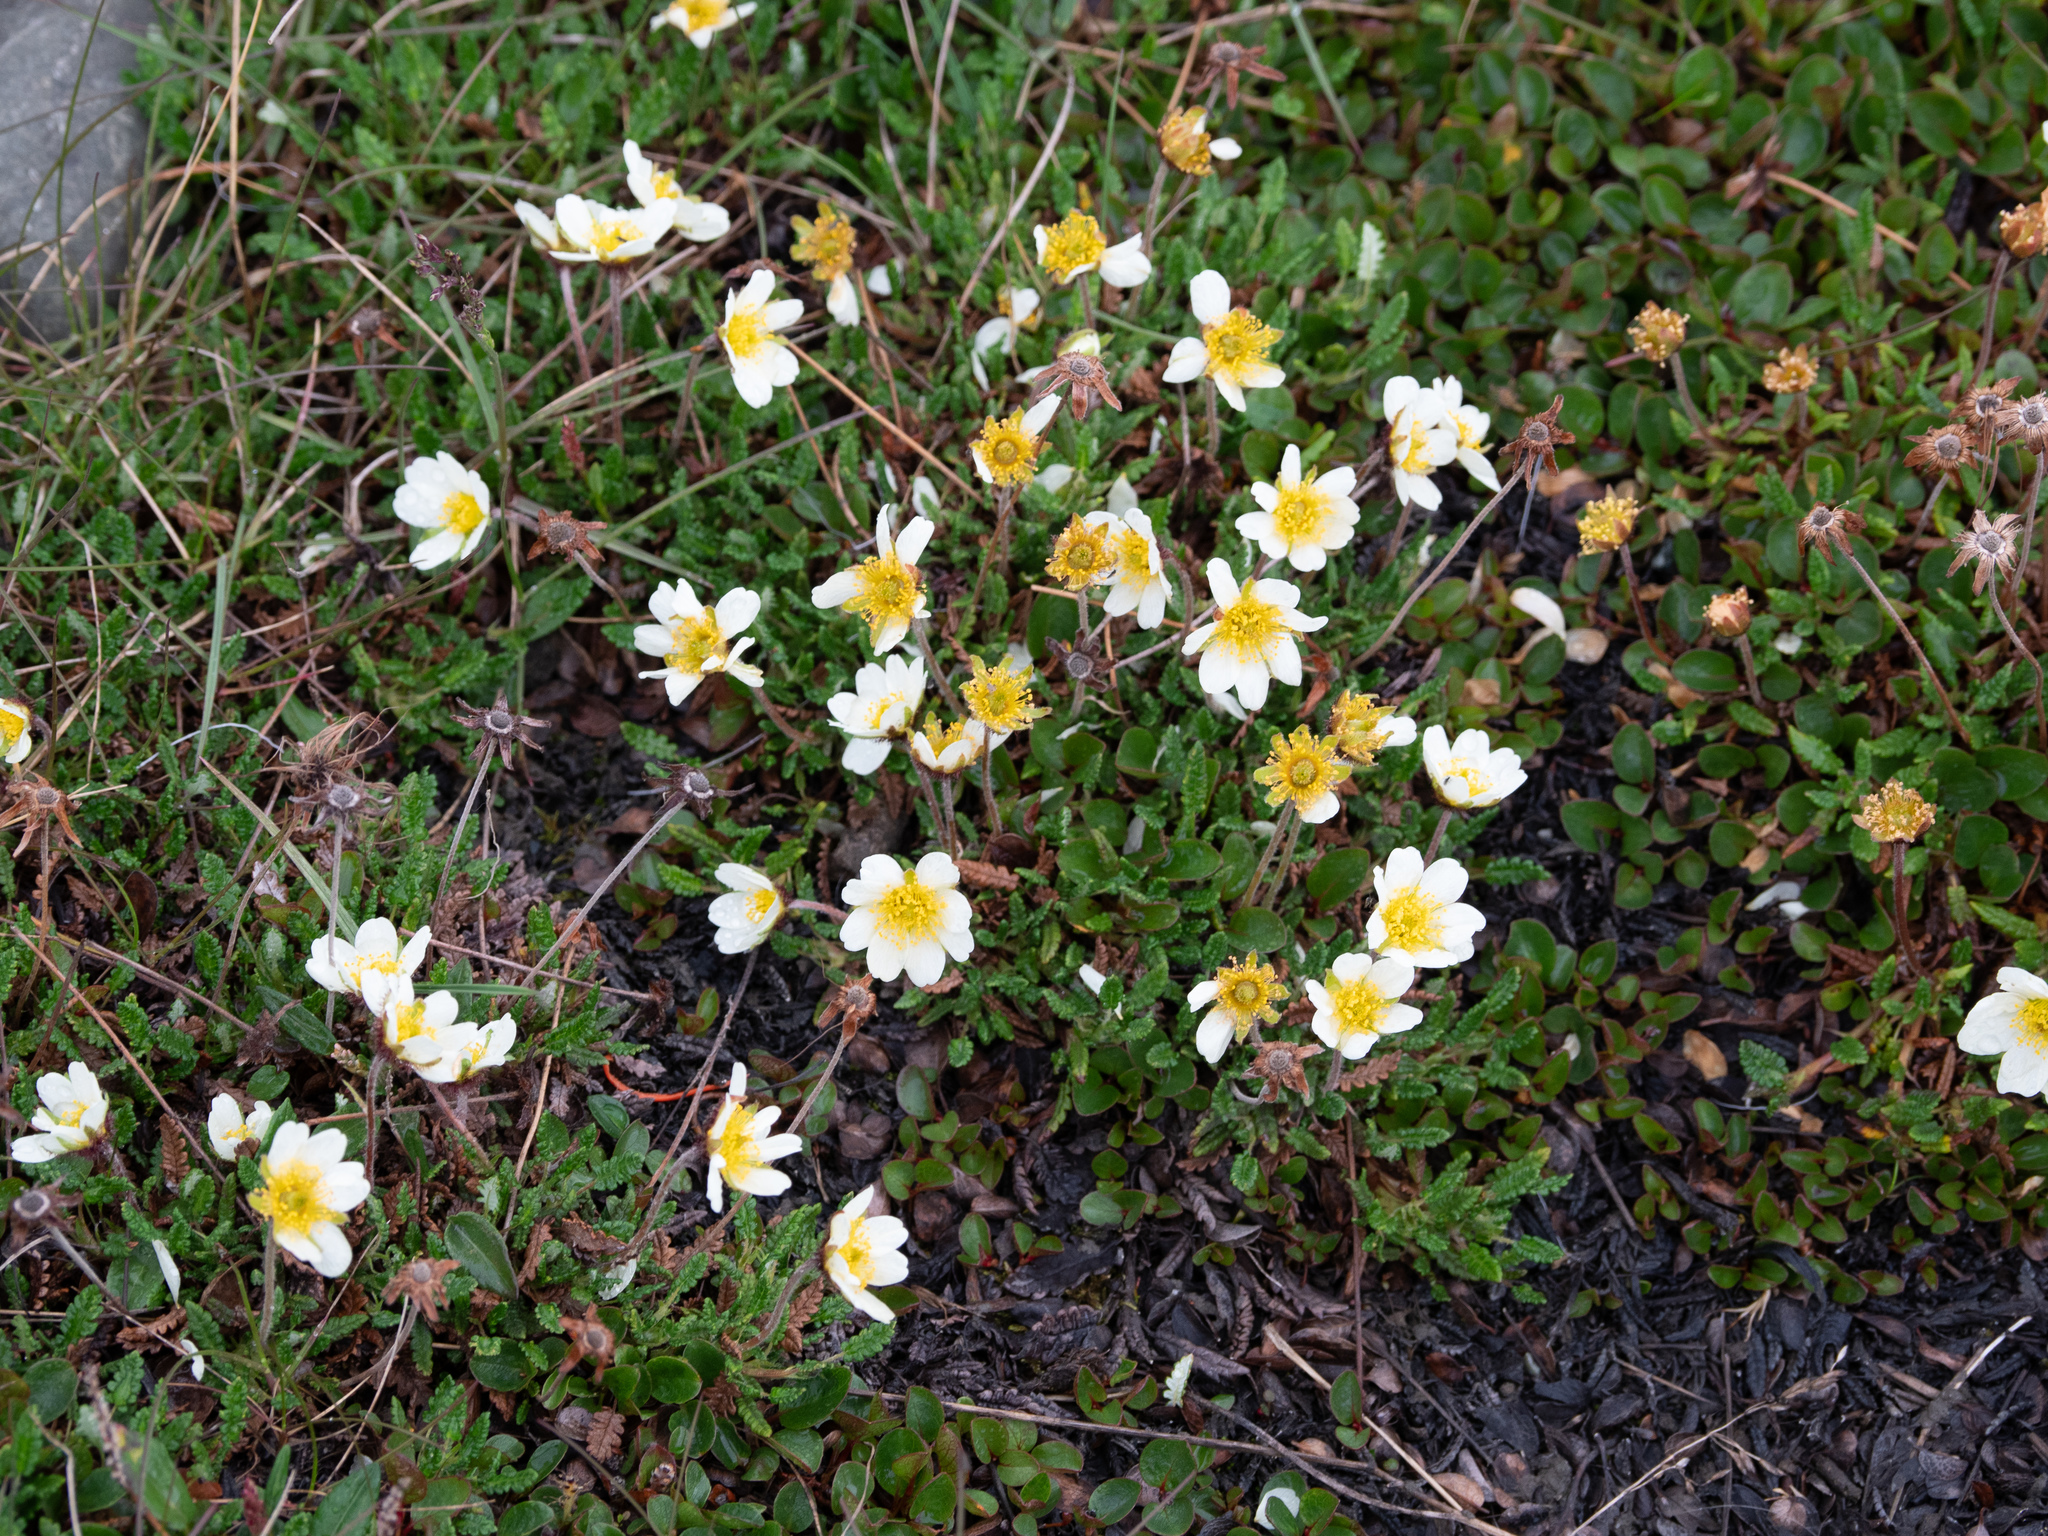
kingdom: Plantae
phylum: Tracheophyta
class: Magnoliopsida
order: Rosales
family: Rosaceae
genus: Dryas
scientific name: Dryas octopetala
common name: Eight-petal mountain-avens
